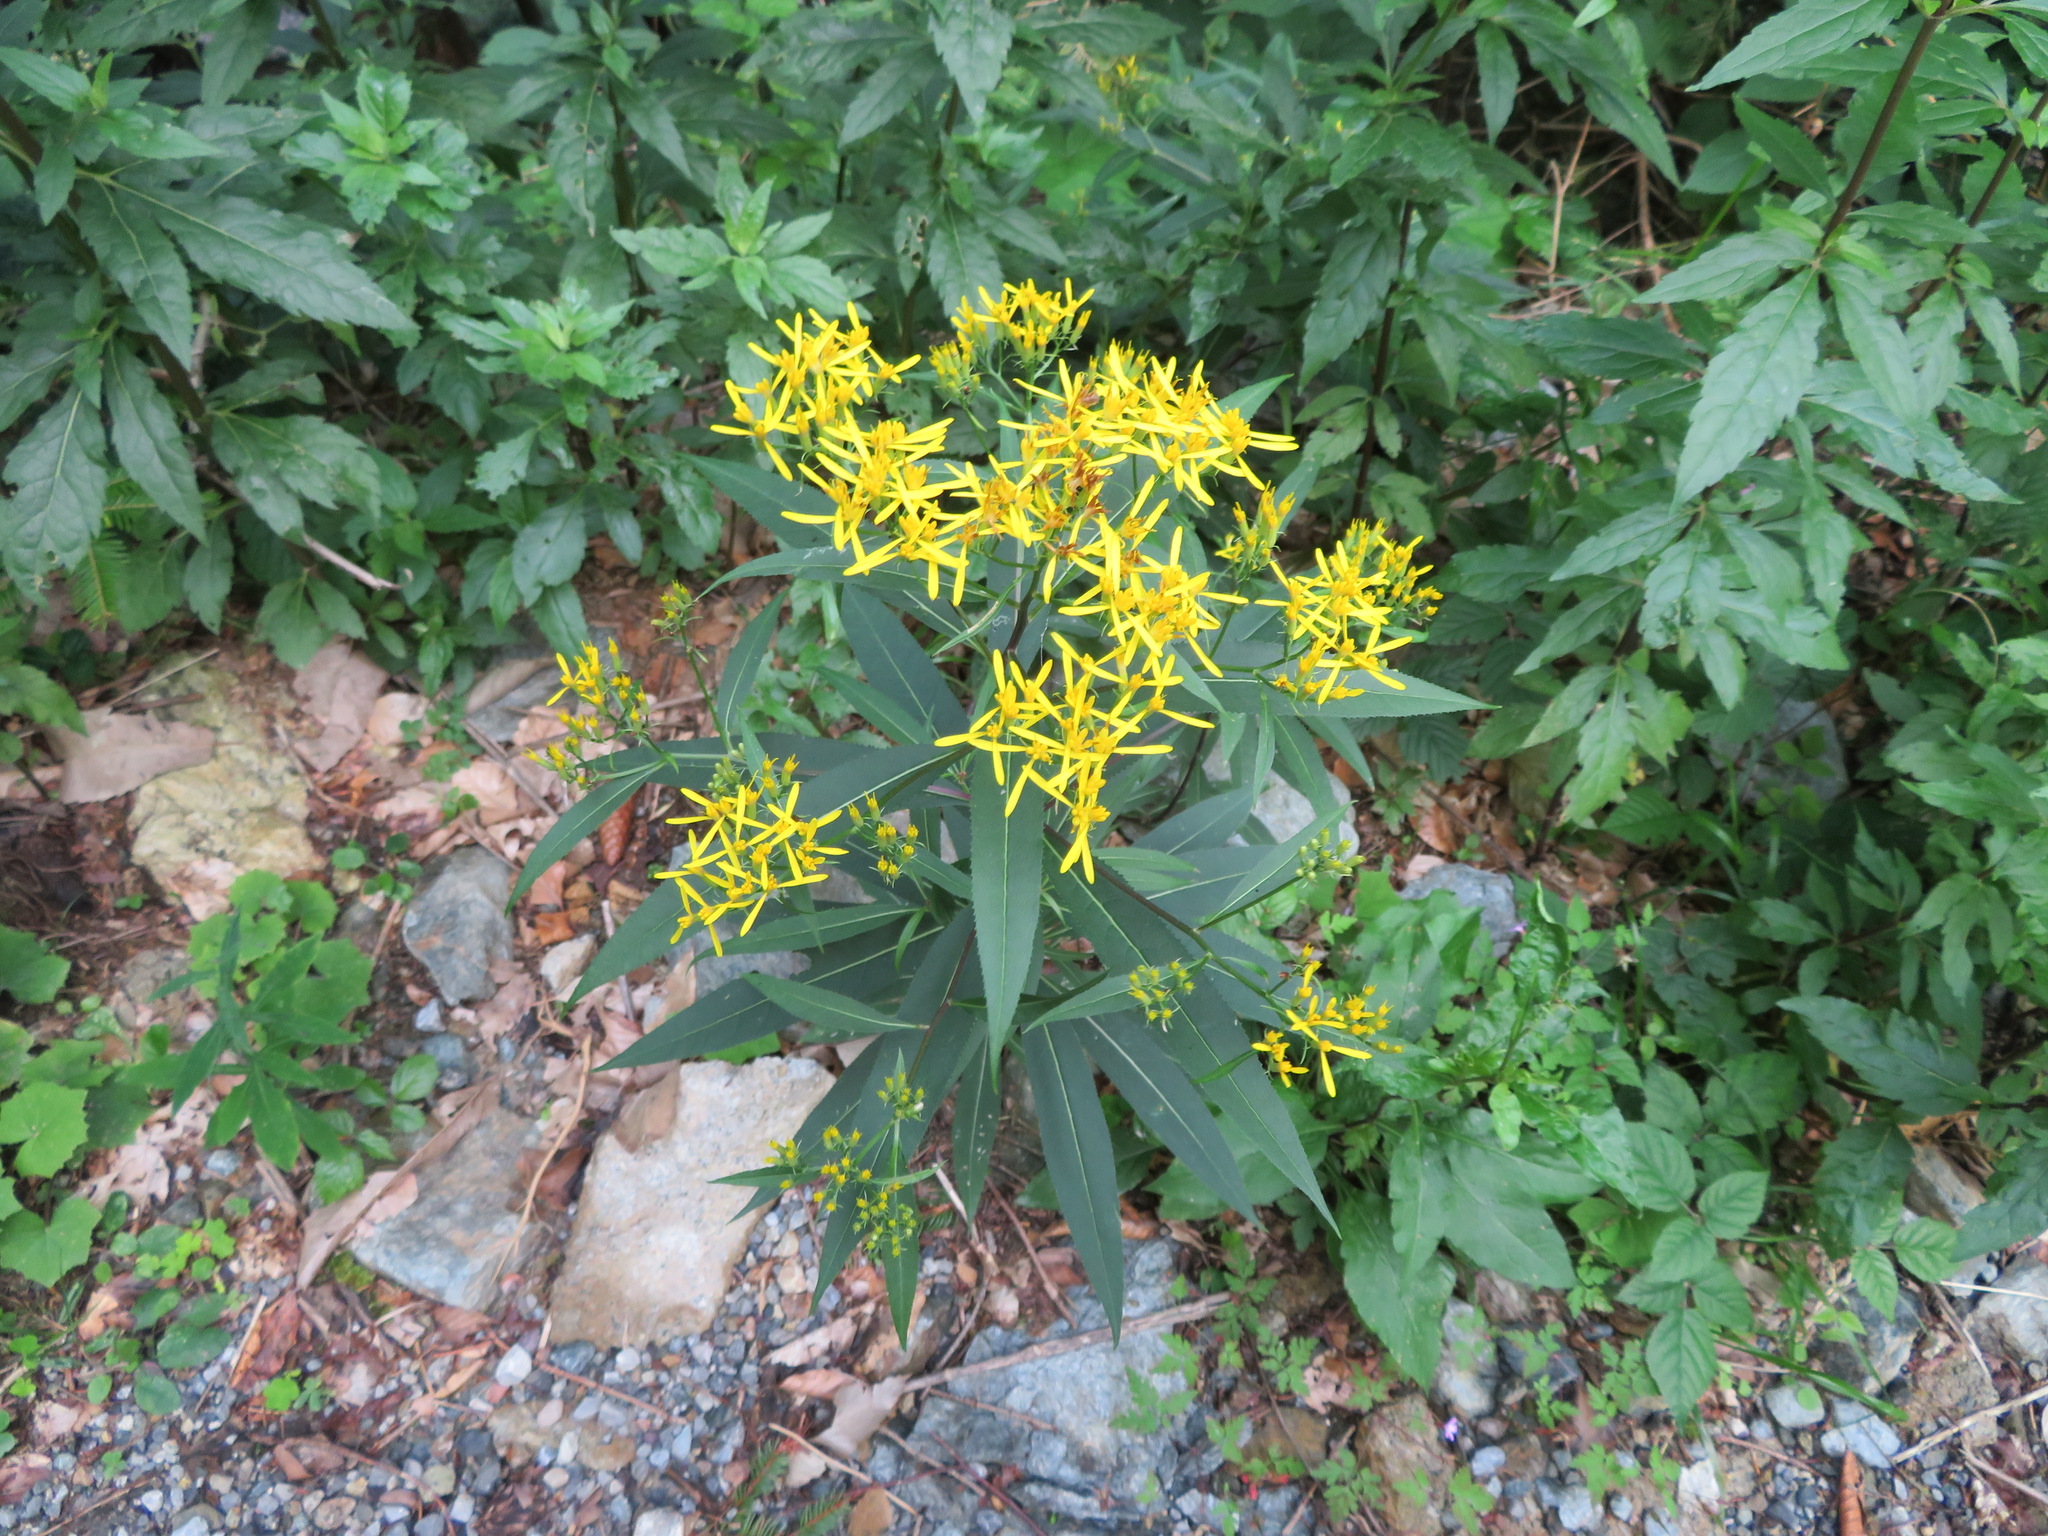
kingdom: Plantae
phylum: Tracheophyta
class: Magnoliopsida
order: Asterales
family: Asteraceae
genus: Senecio
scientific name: Senecio ovatus
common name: Wood ragwort
